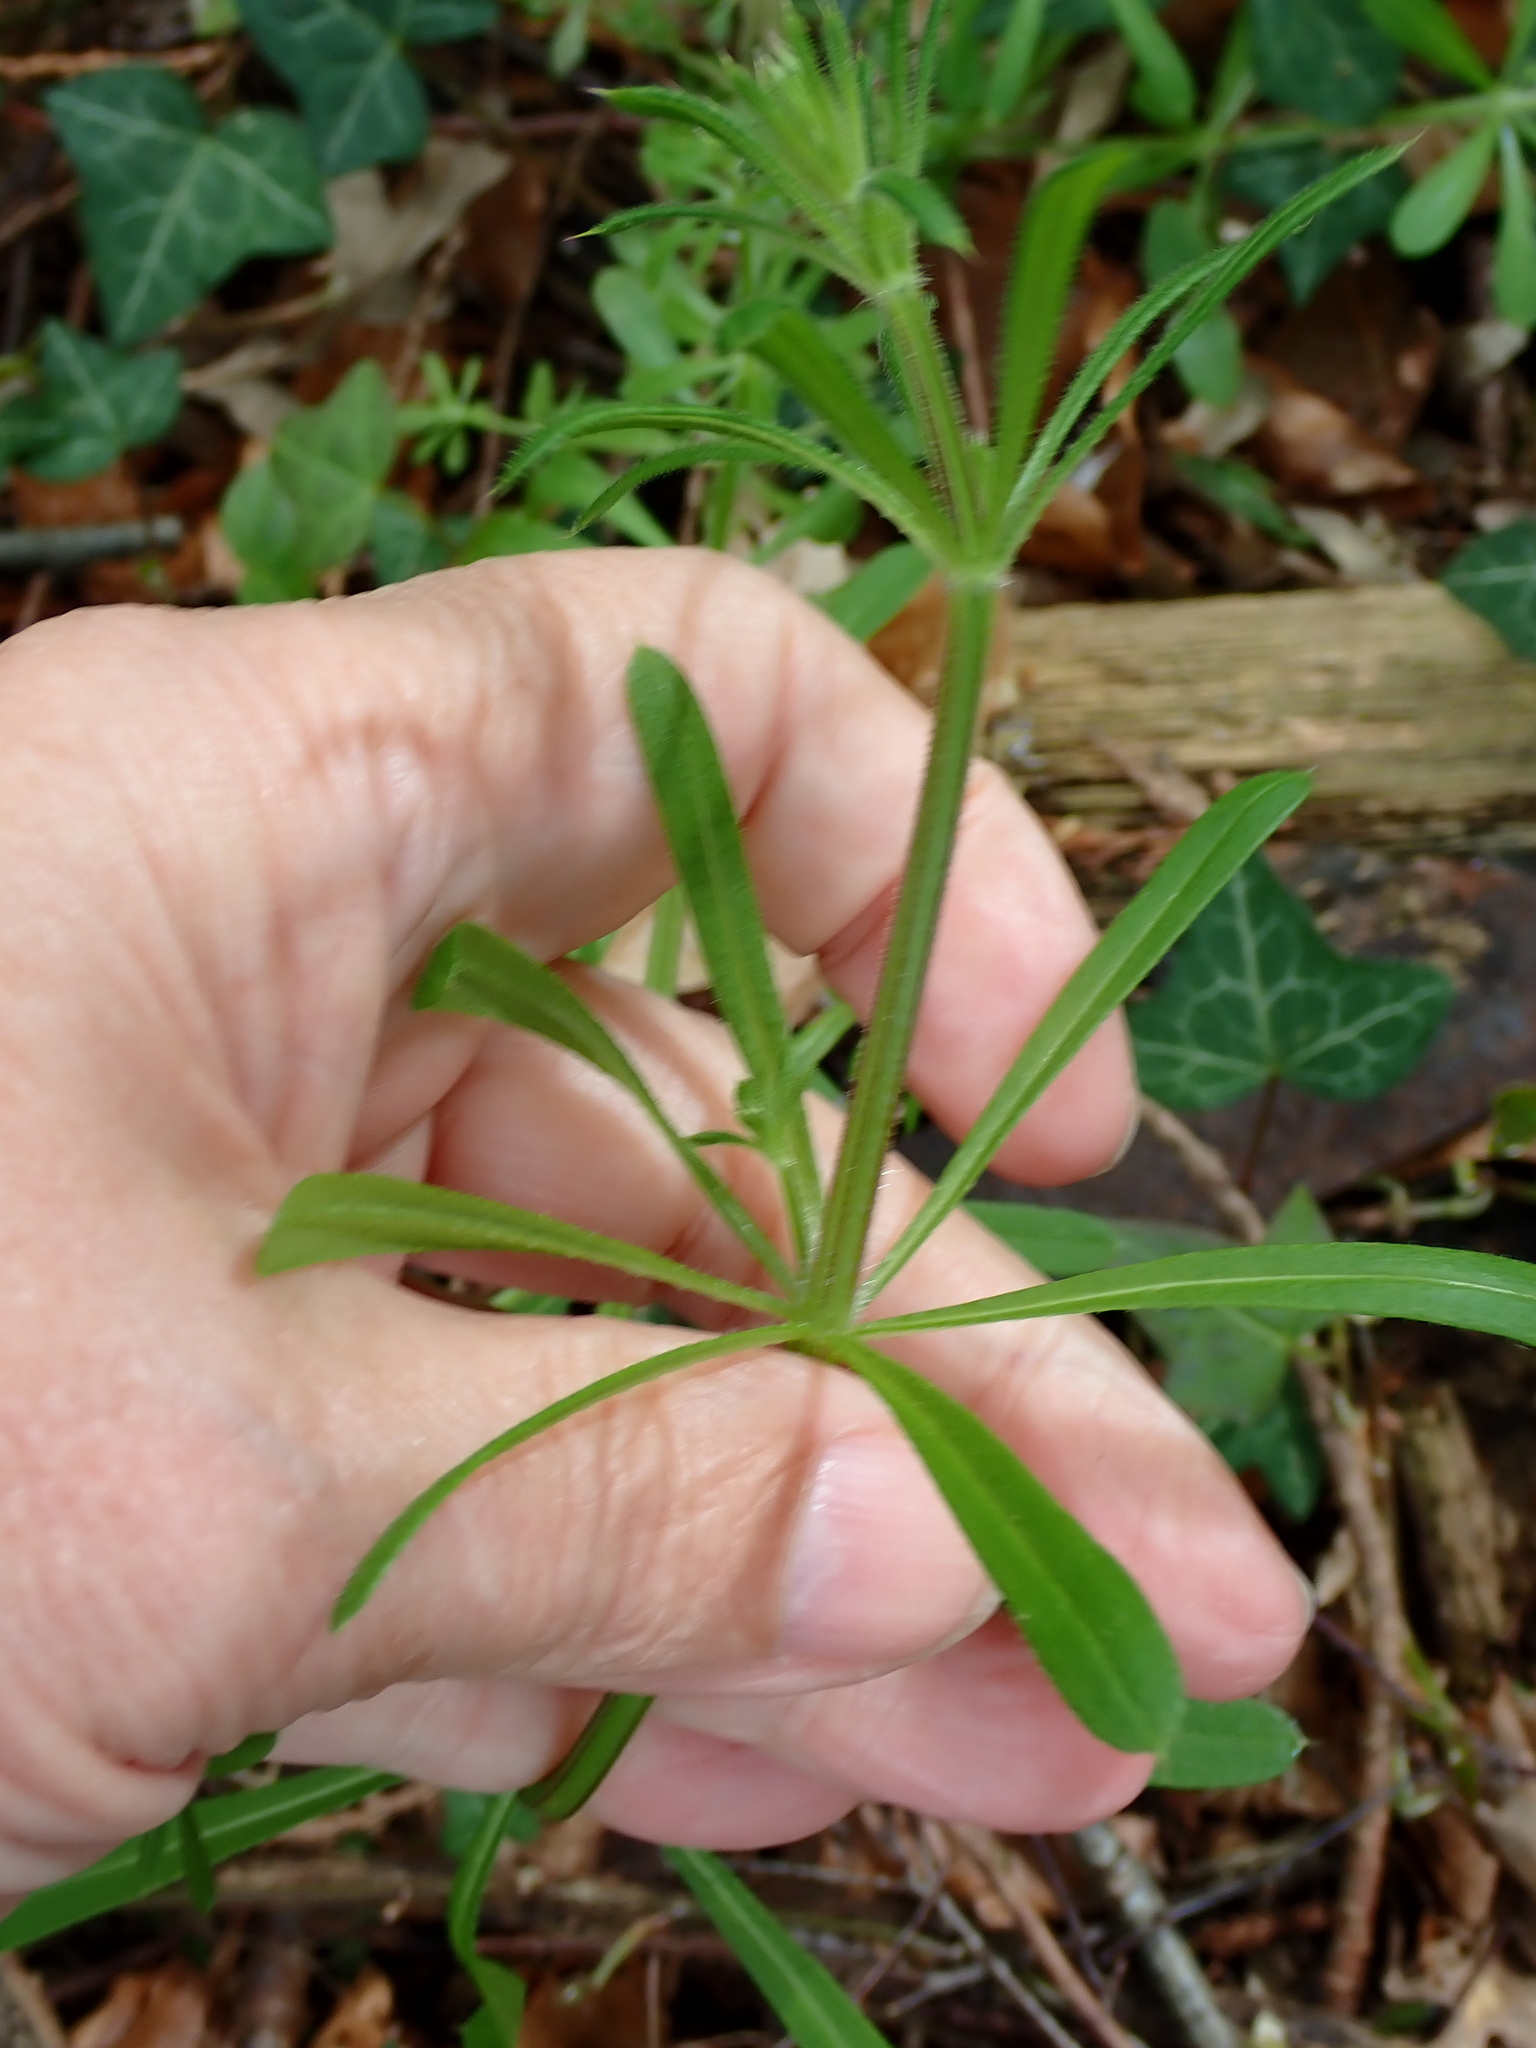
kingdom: Plantae
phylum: Tracheophyta
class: Magnoliopsida
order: Gentianales
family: Rubiaceae
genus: Galium
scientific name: Galium aparine
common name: Cleavers
